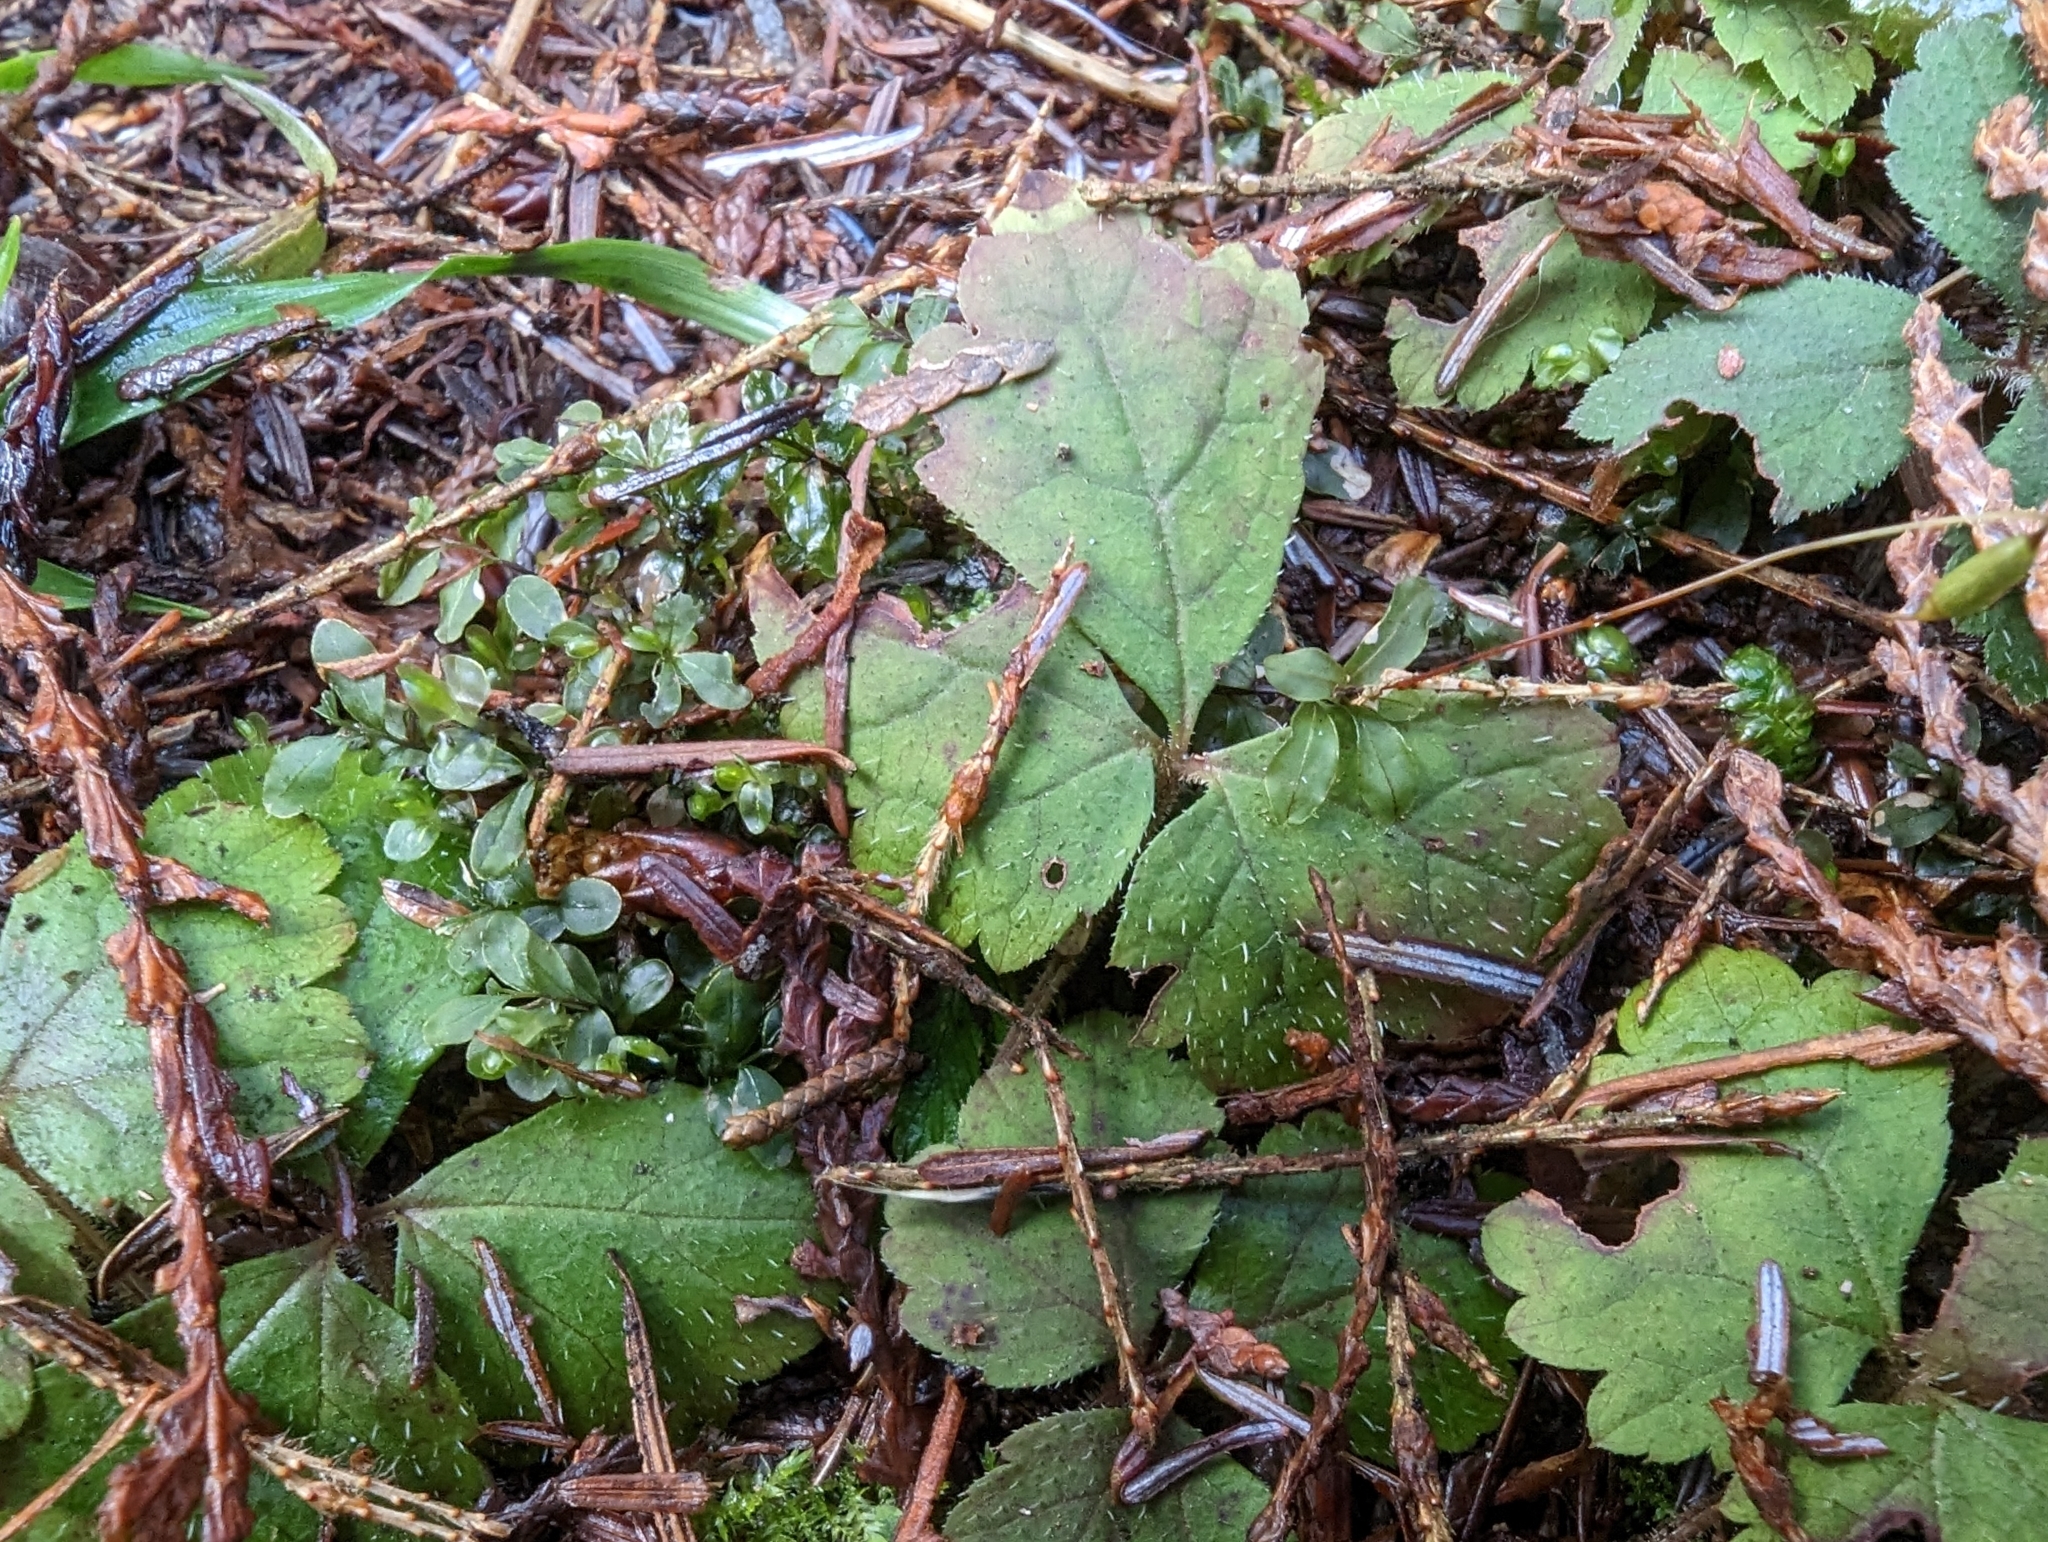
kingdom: Plantae
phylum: Tracheophyta
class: Magnoliopsida
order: Saxifragales
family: Saxifragaceae
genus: Tiarella
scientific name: Tiarella trifoliata
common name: Sugar-scoop
